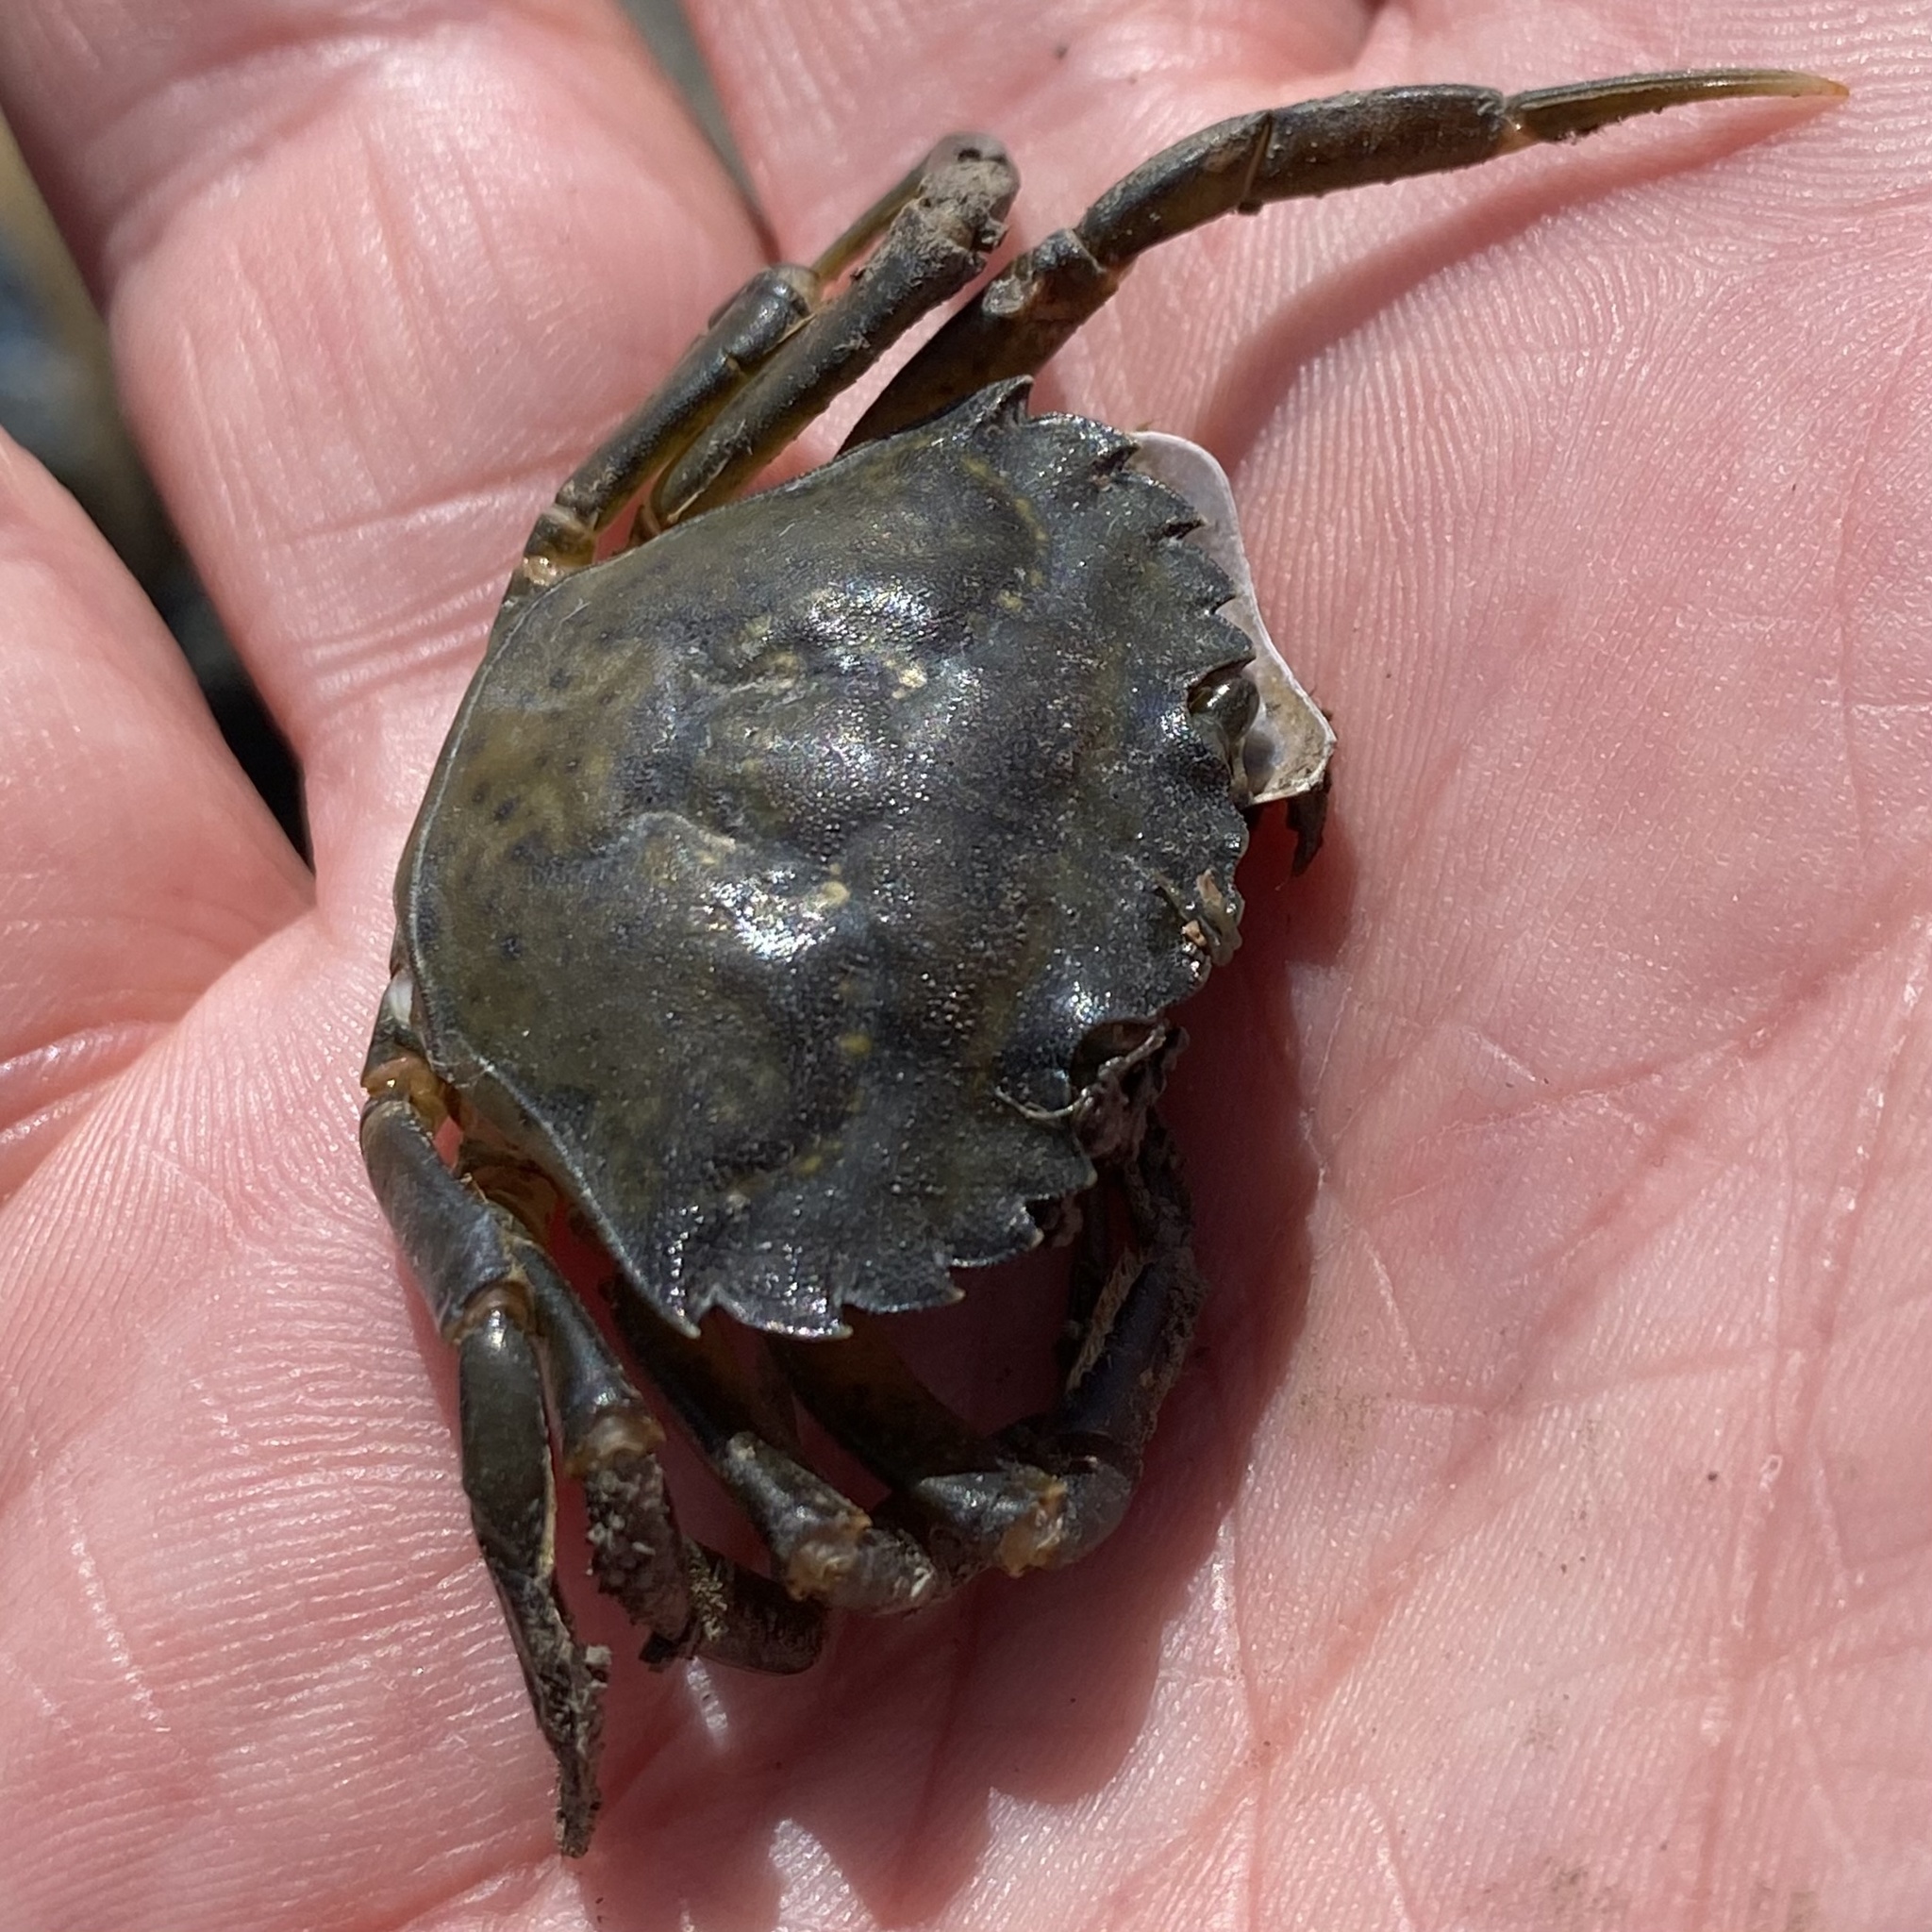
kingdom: Animalia
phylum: Arthropoda
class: Malacostraca
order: Decapoda
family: Carcinidae
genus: Carcinus
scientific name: Carcinus maenas
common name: European green crab
